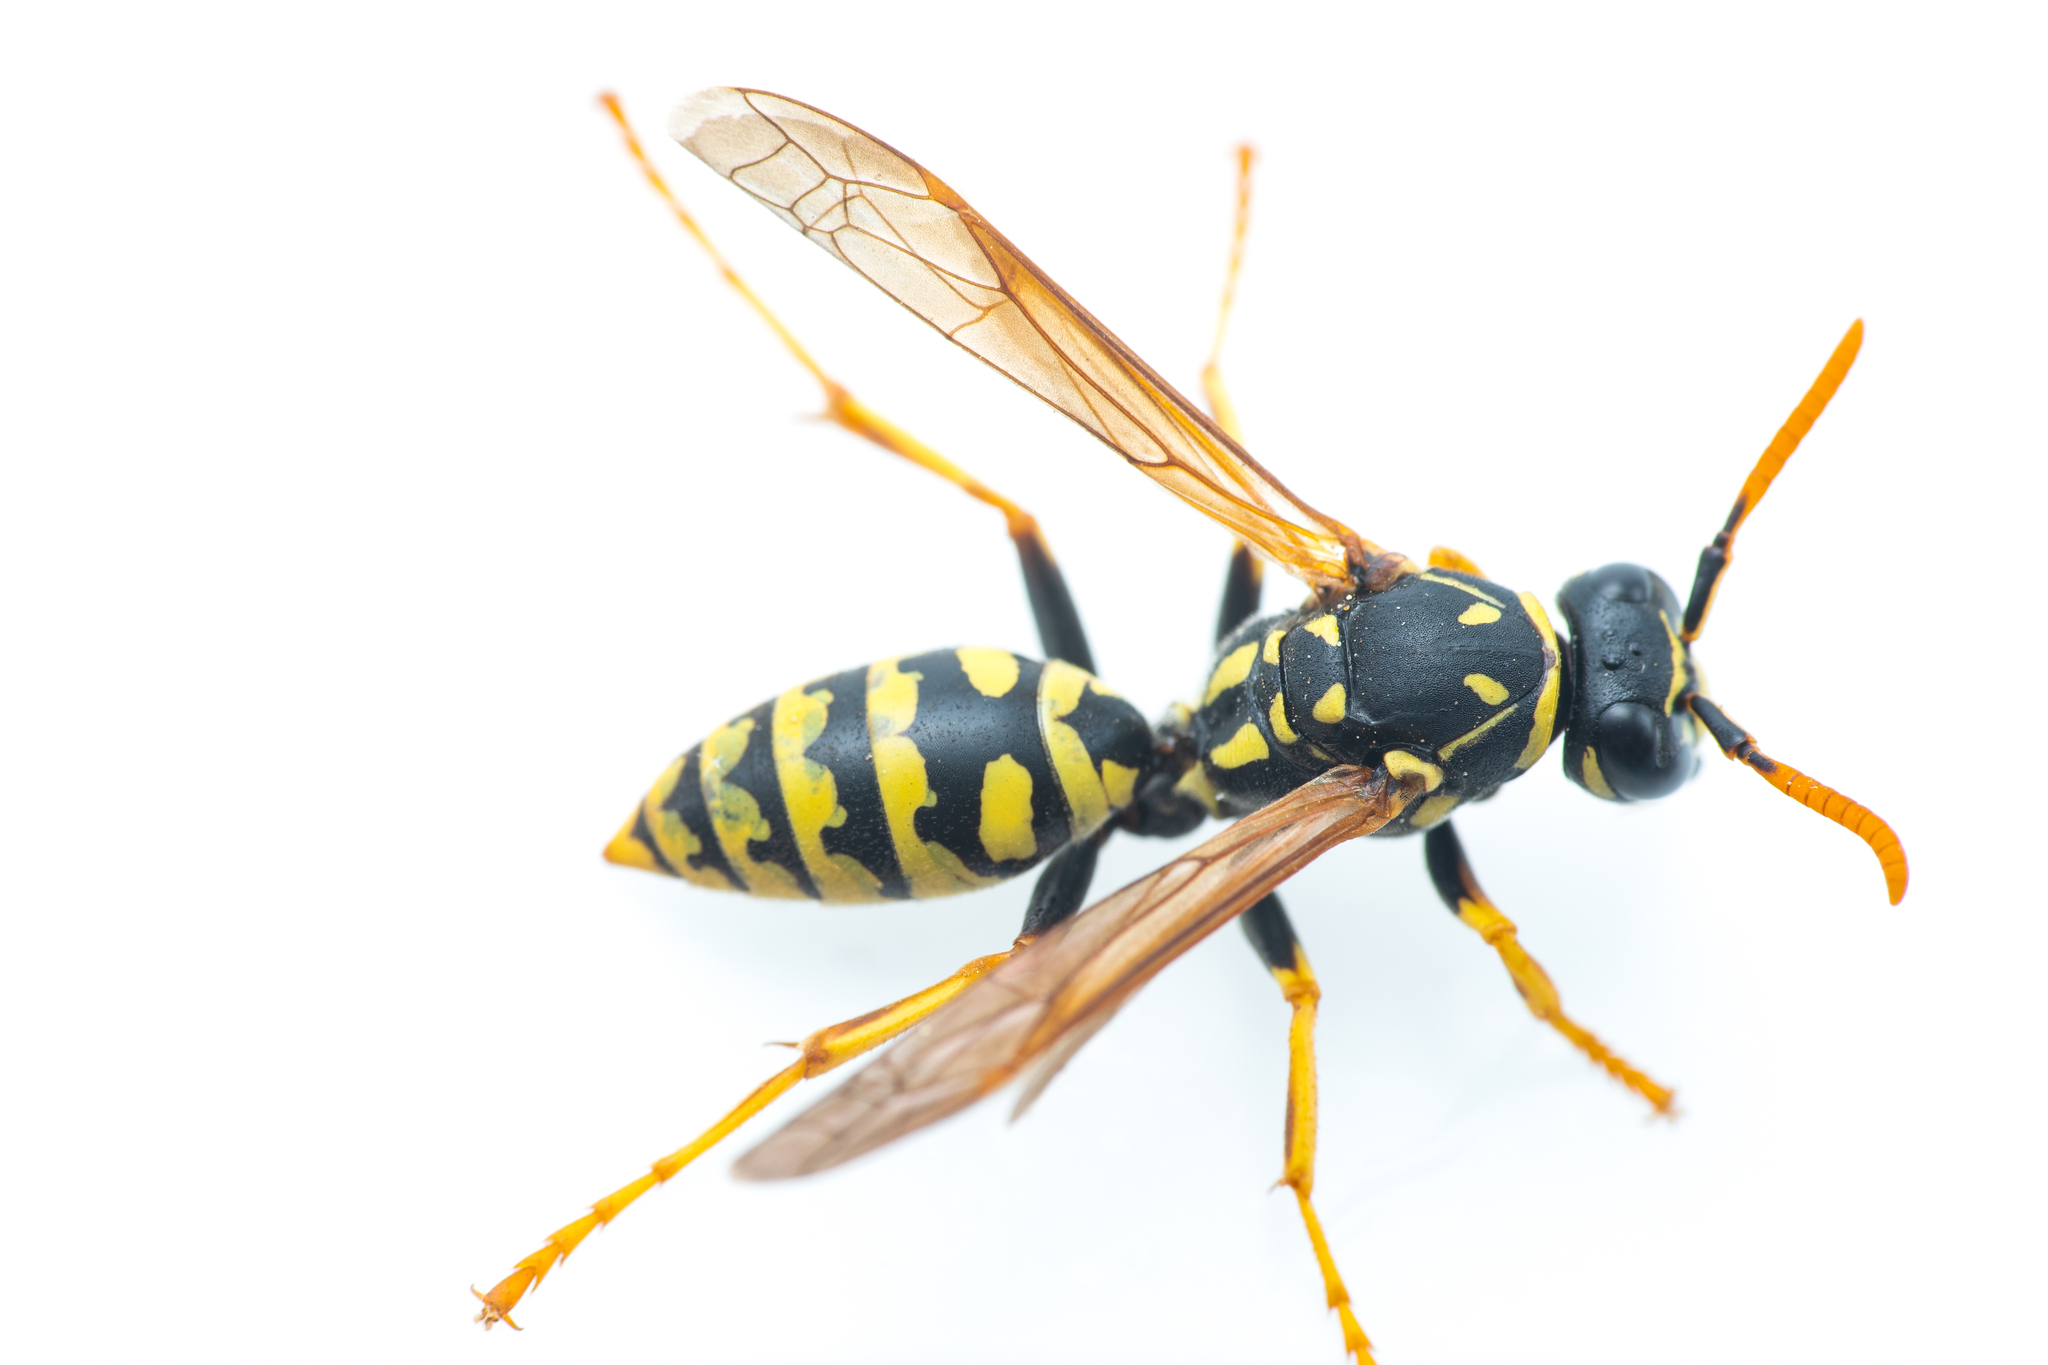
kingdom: Animalia
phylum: Arthropoda
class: Insecta
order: Hymenoptera
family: Eumenidae
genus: Polistes
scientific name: Polistes dominula
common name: Paper wasp
